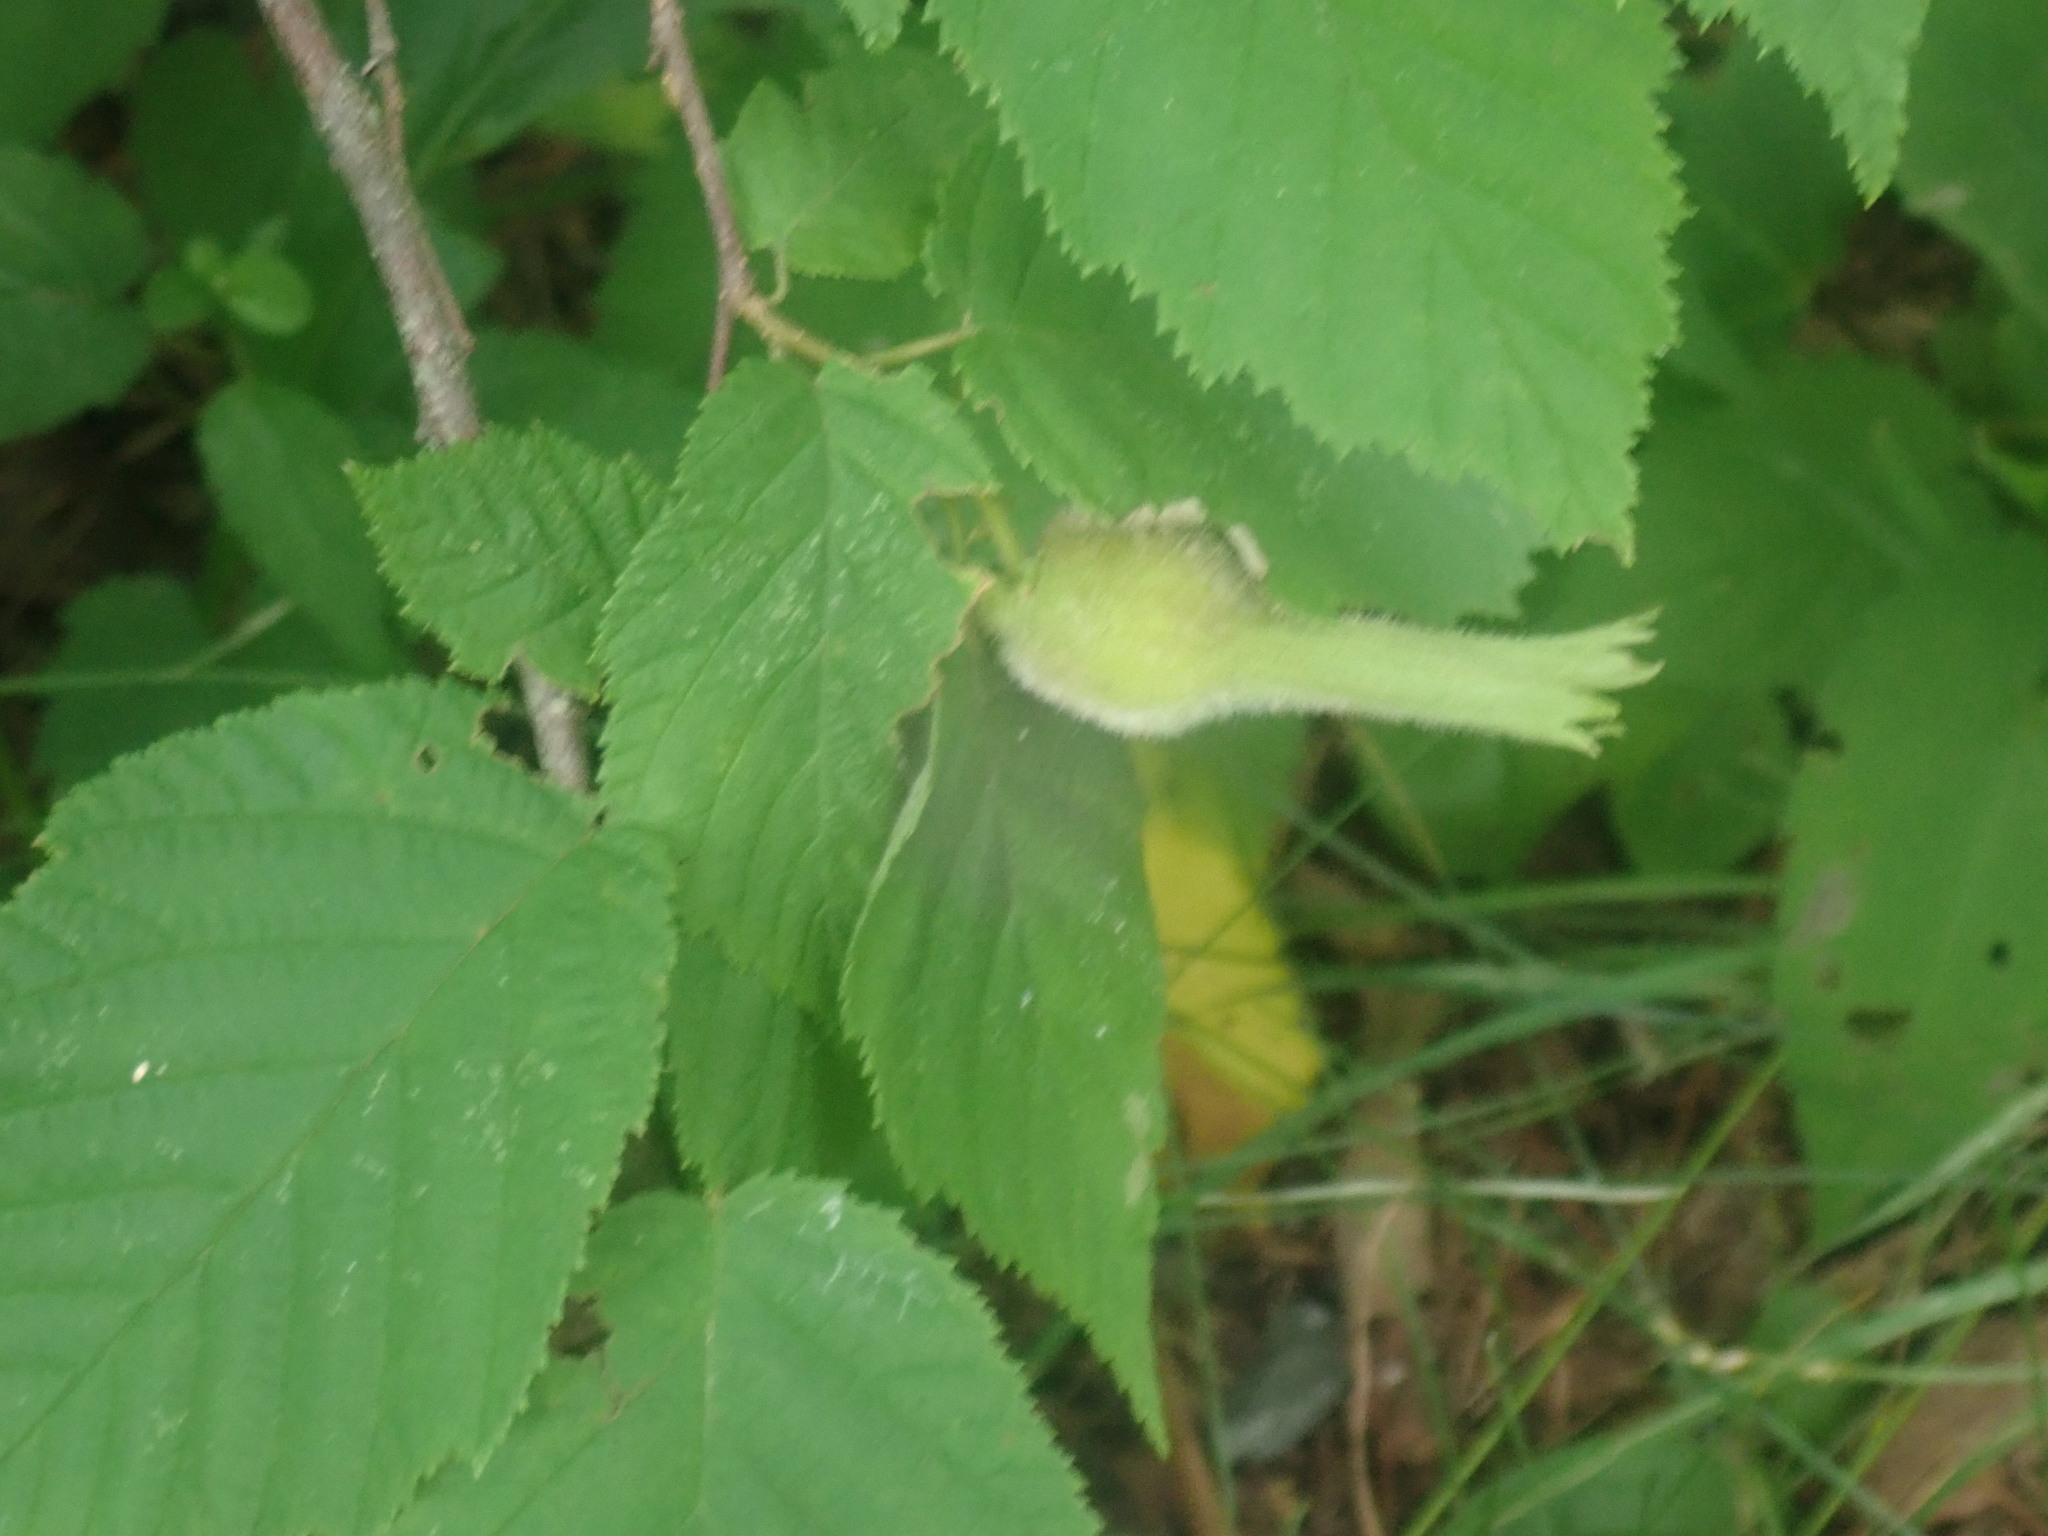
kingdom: Plantae
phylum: Tracheophyta
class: Magnoliopsida
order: Fagales
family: Betulaceae
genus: Corylus
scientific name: Corylus cornuta
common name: Beaked hazel
